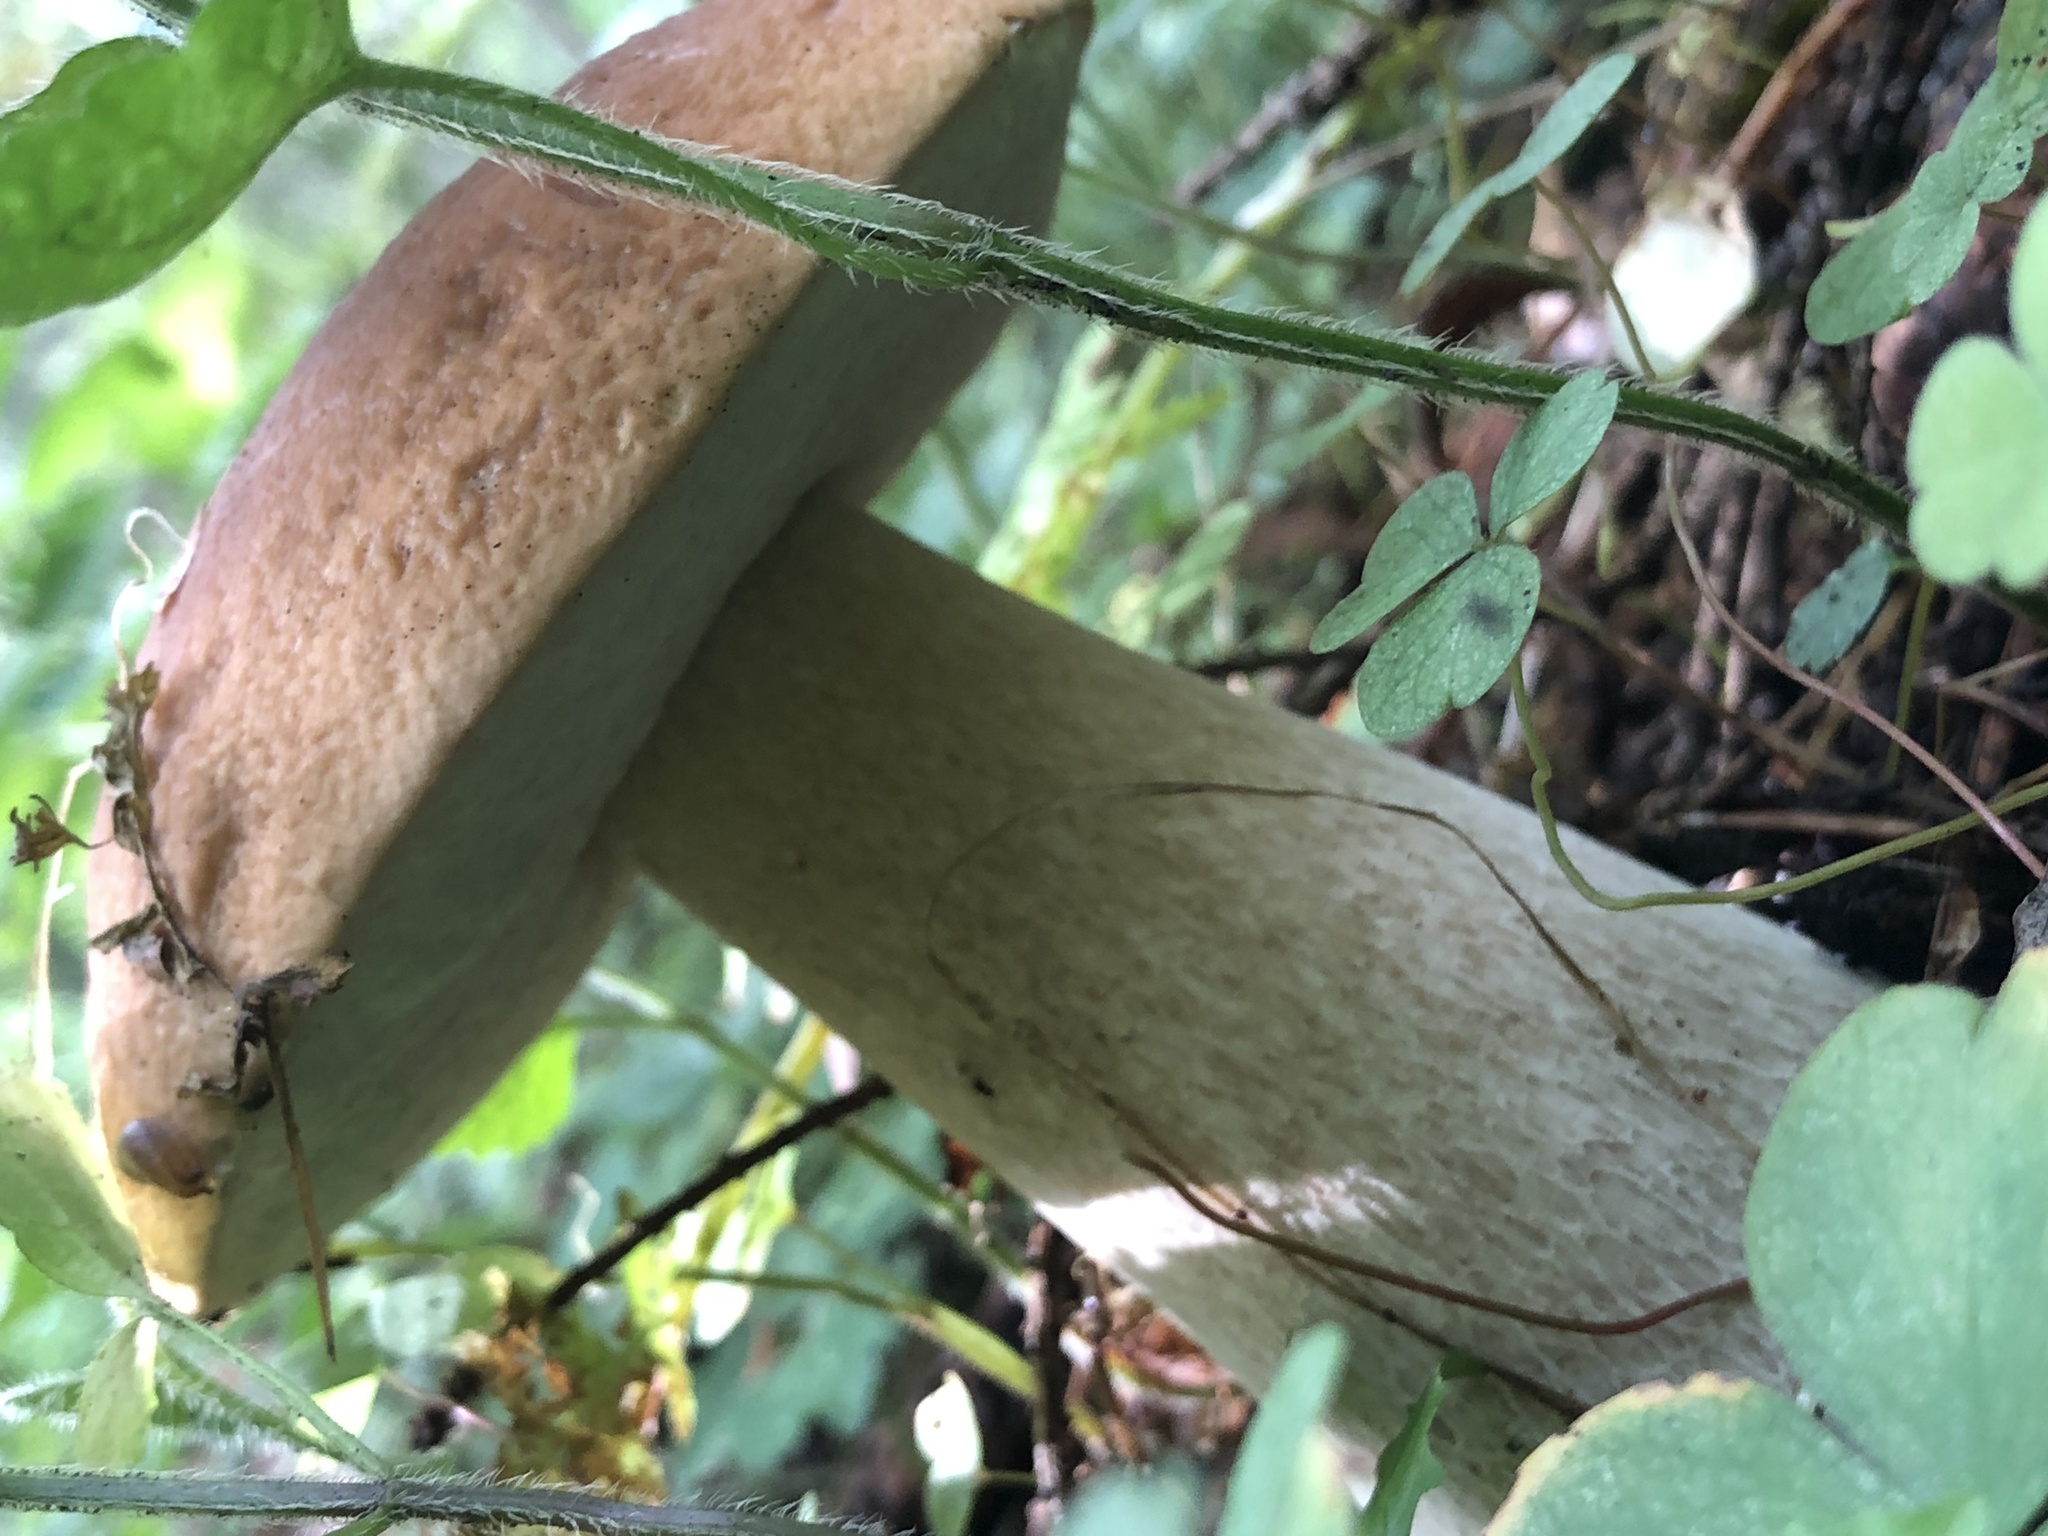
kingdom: Fungi
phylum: Basidiomycota
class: Agaricomycetes
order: Boletales
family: Boletaceae
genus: Boletus
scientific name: Boletus edulis
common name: Cep
